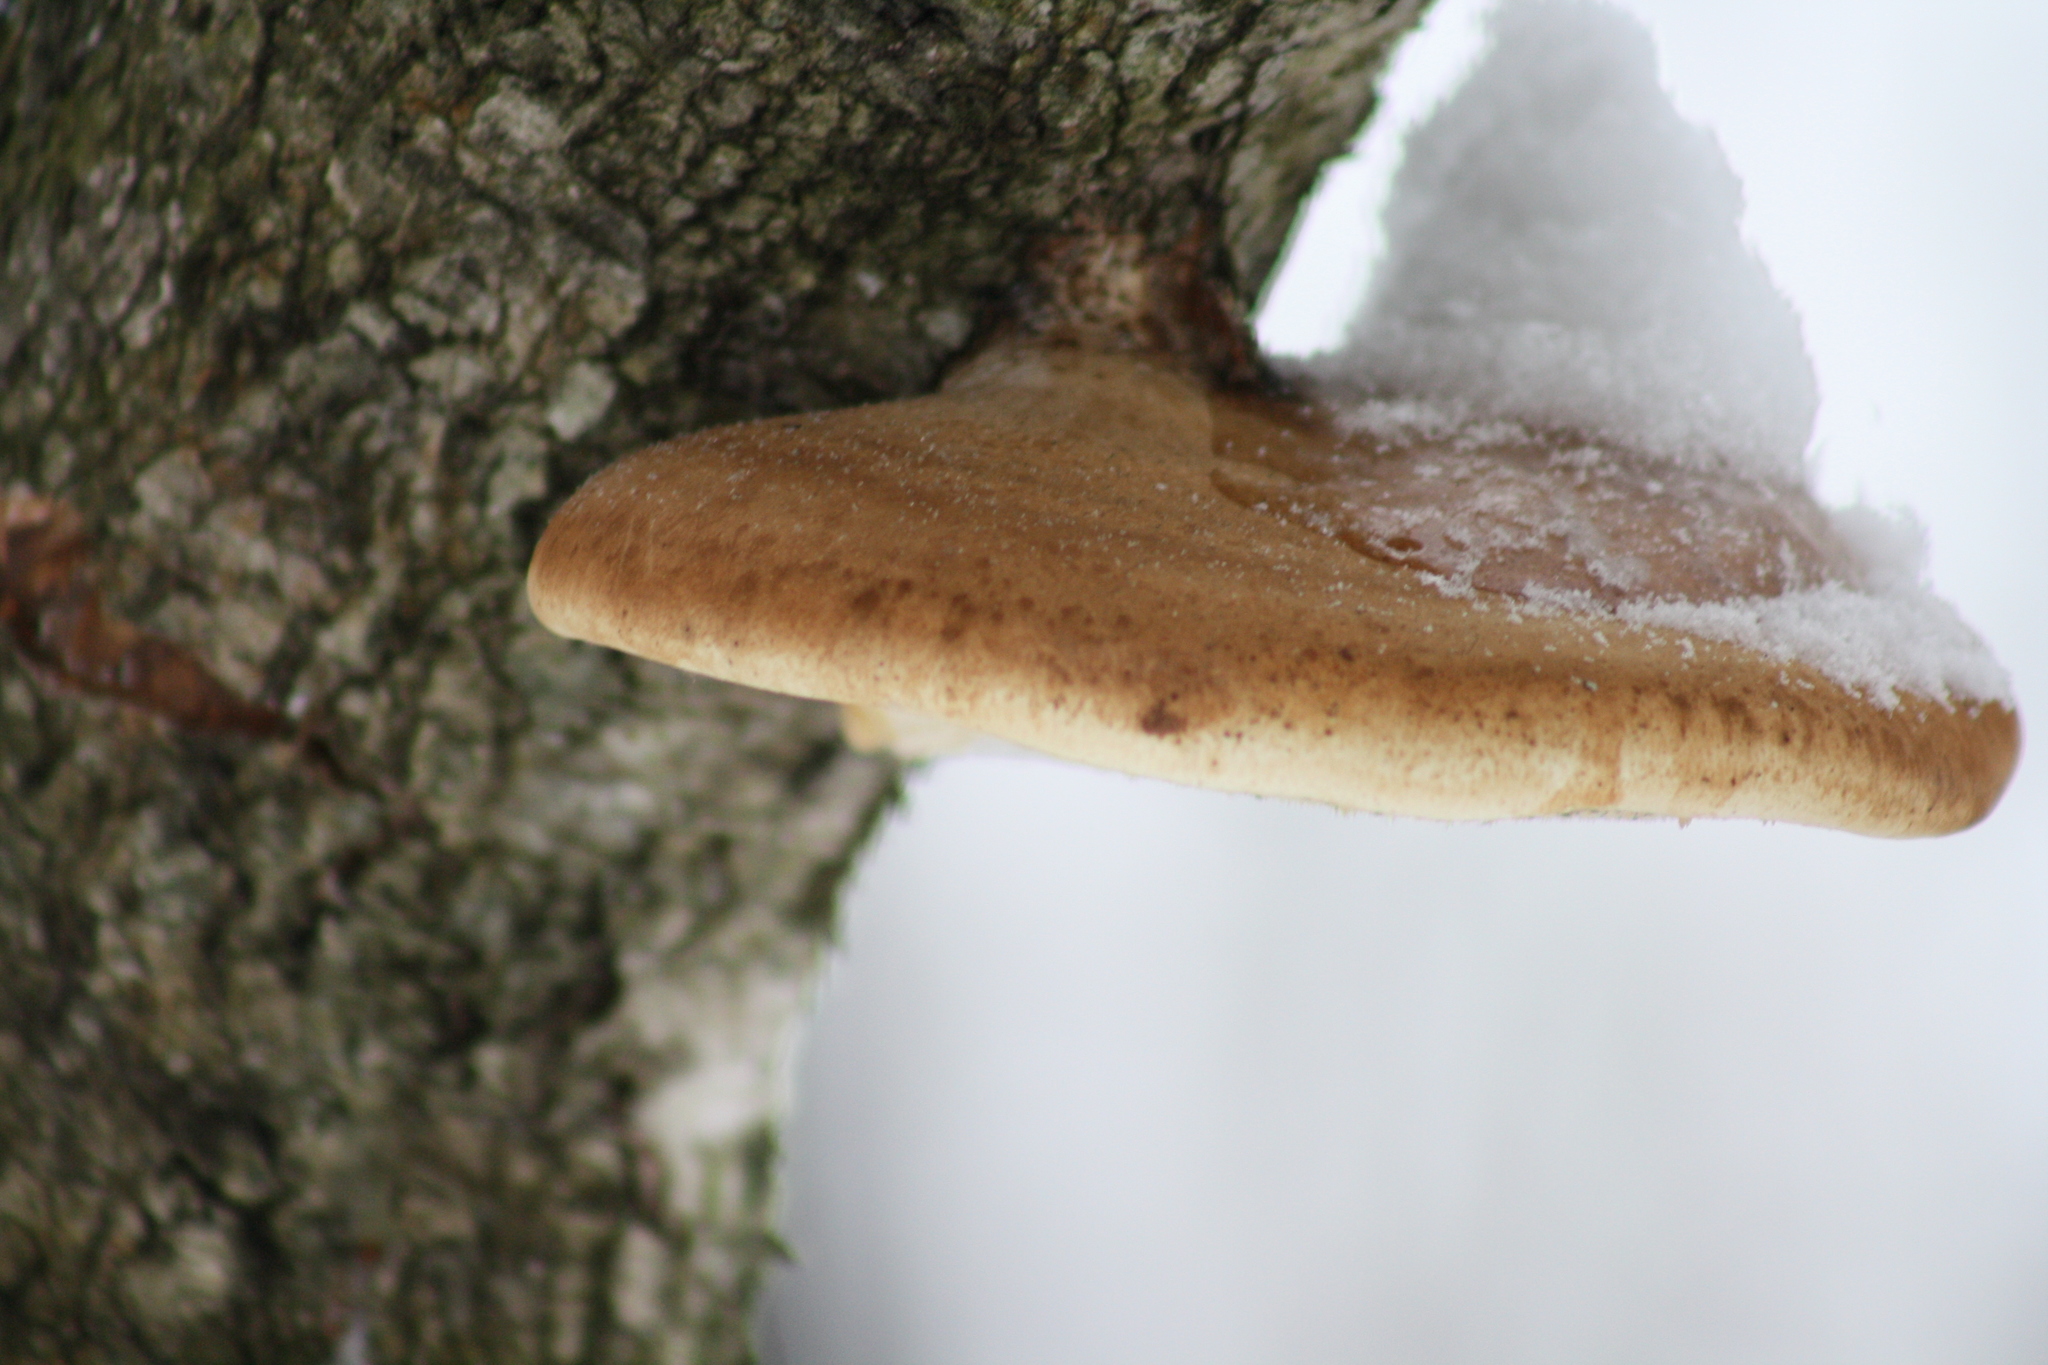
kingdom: Fungi
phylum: Basidiomycota
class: Agaricomycetes
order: Polyporales
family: Fomitopsidaceae
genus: Fomitopsis
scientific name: Fomitopsis betulina
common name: Birch polypore
